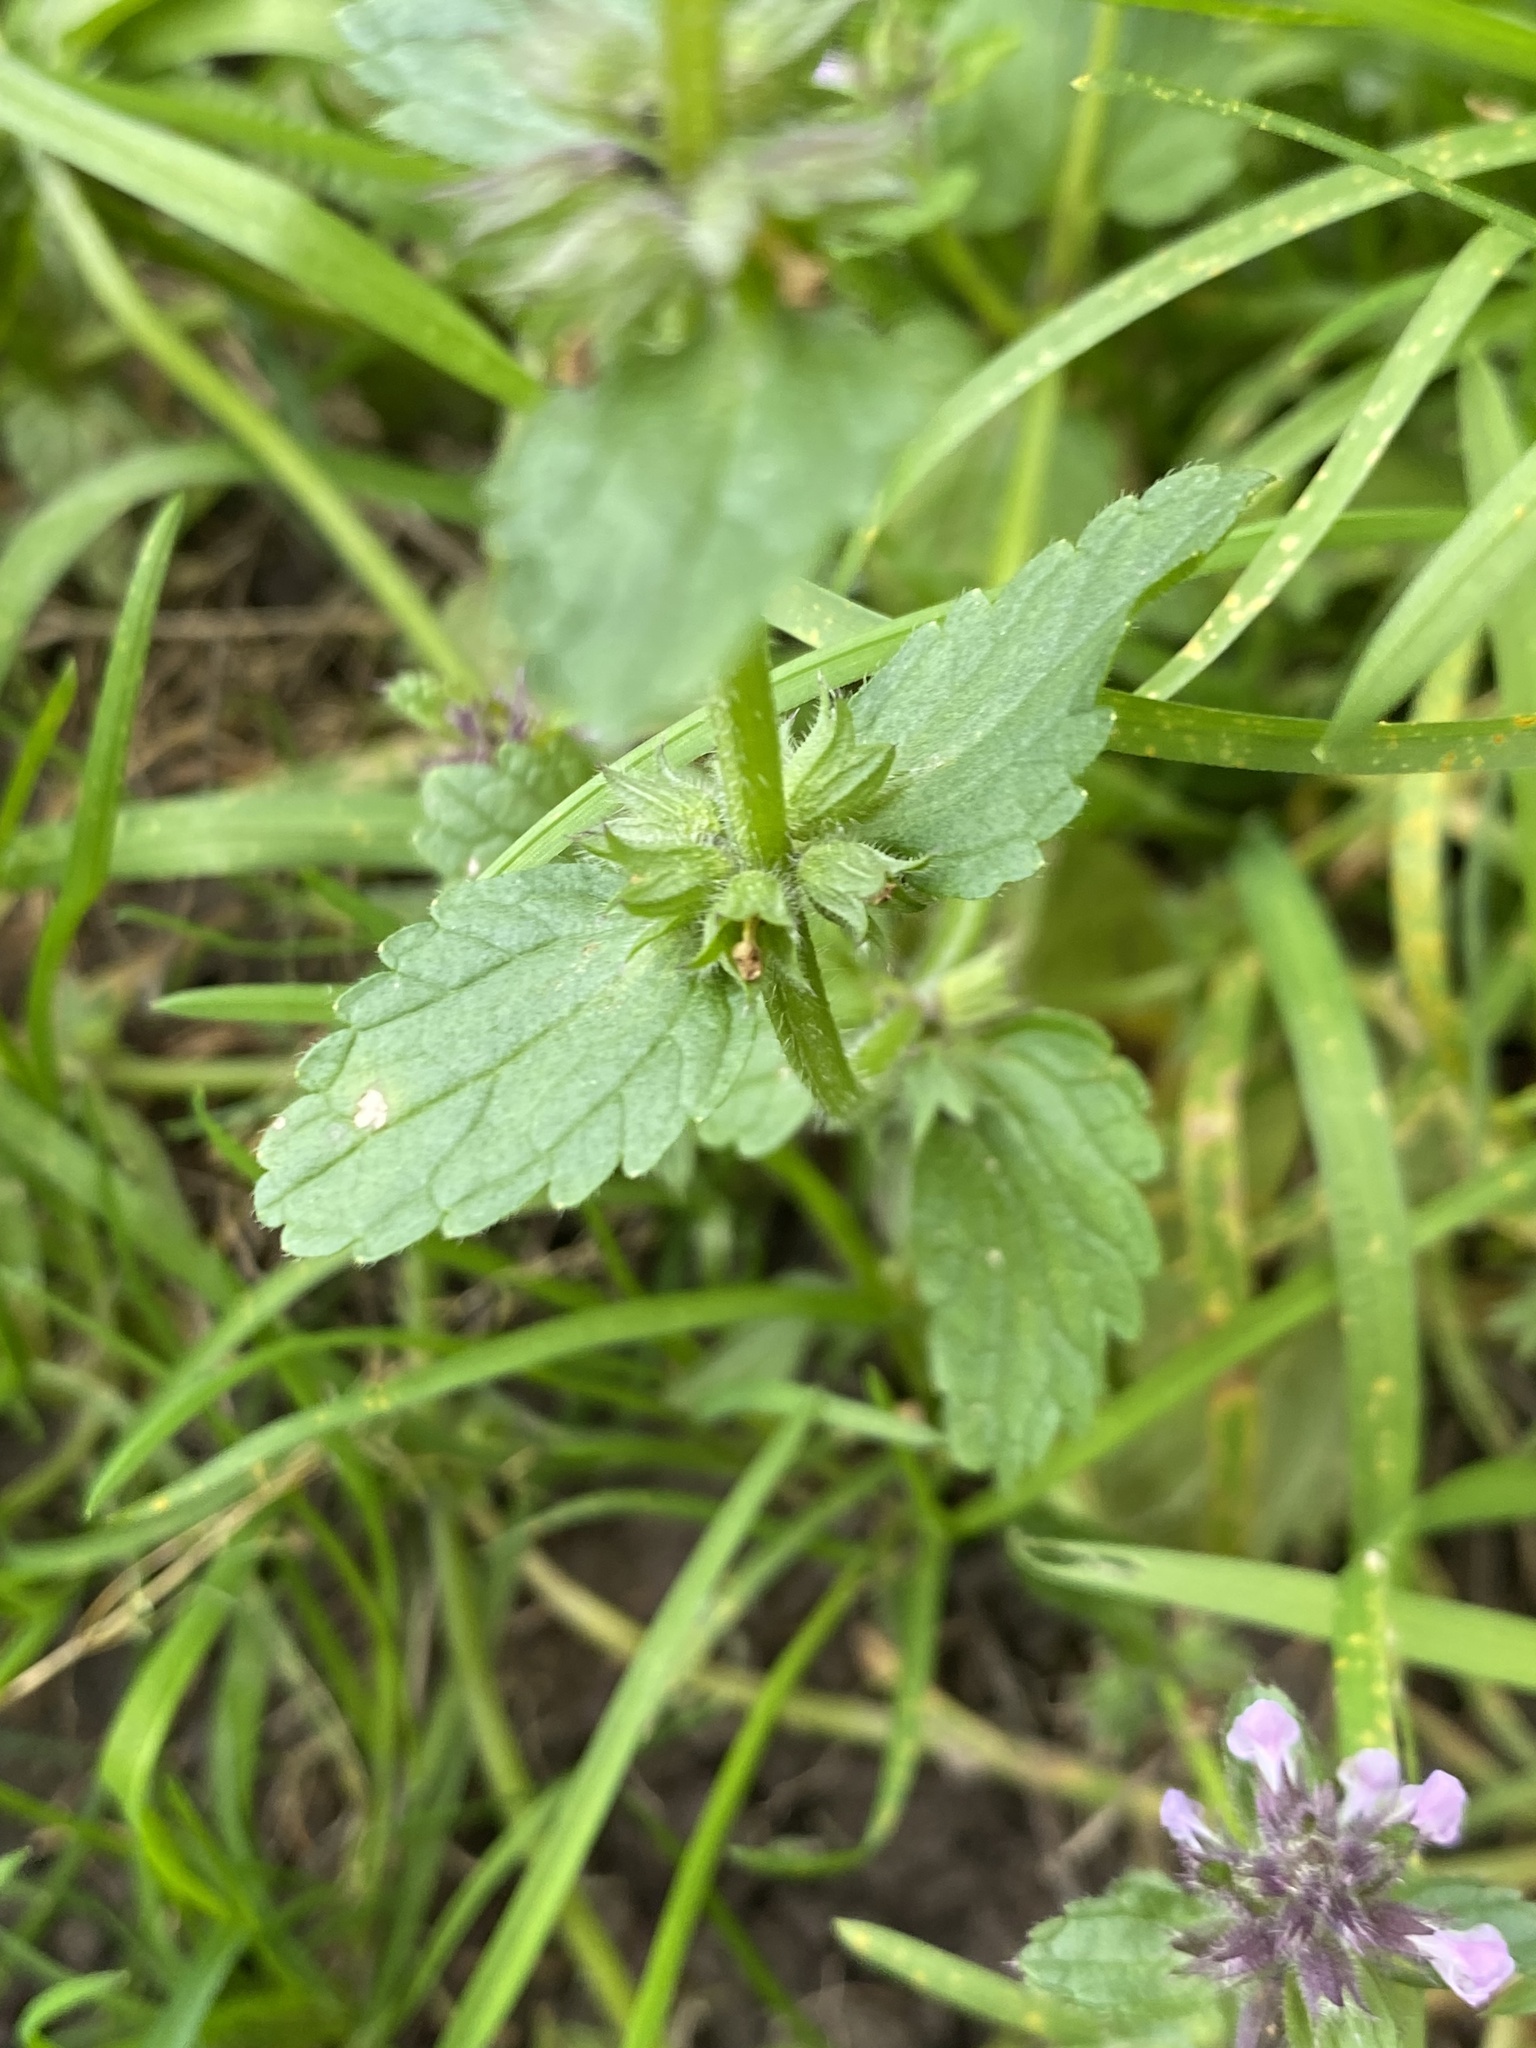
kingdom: Plantae
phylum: Tracheophyta
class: Magnoliopsida
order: Lamiales
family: Lamiaceae
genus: Stachys
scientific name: Stachys arvensis
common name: Field woundwort
